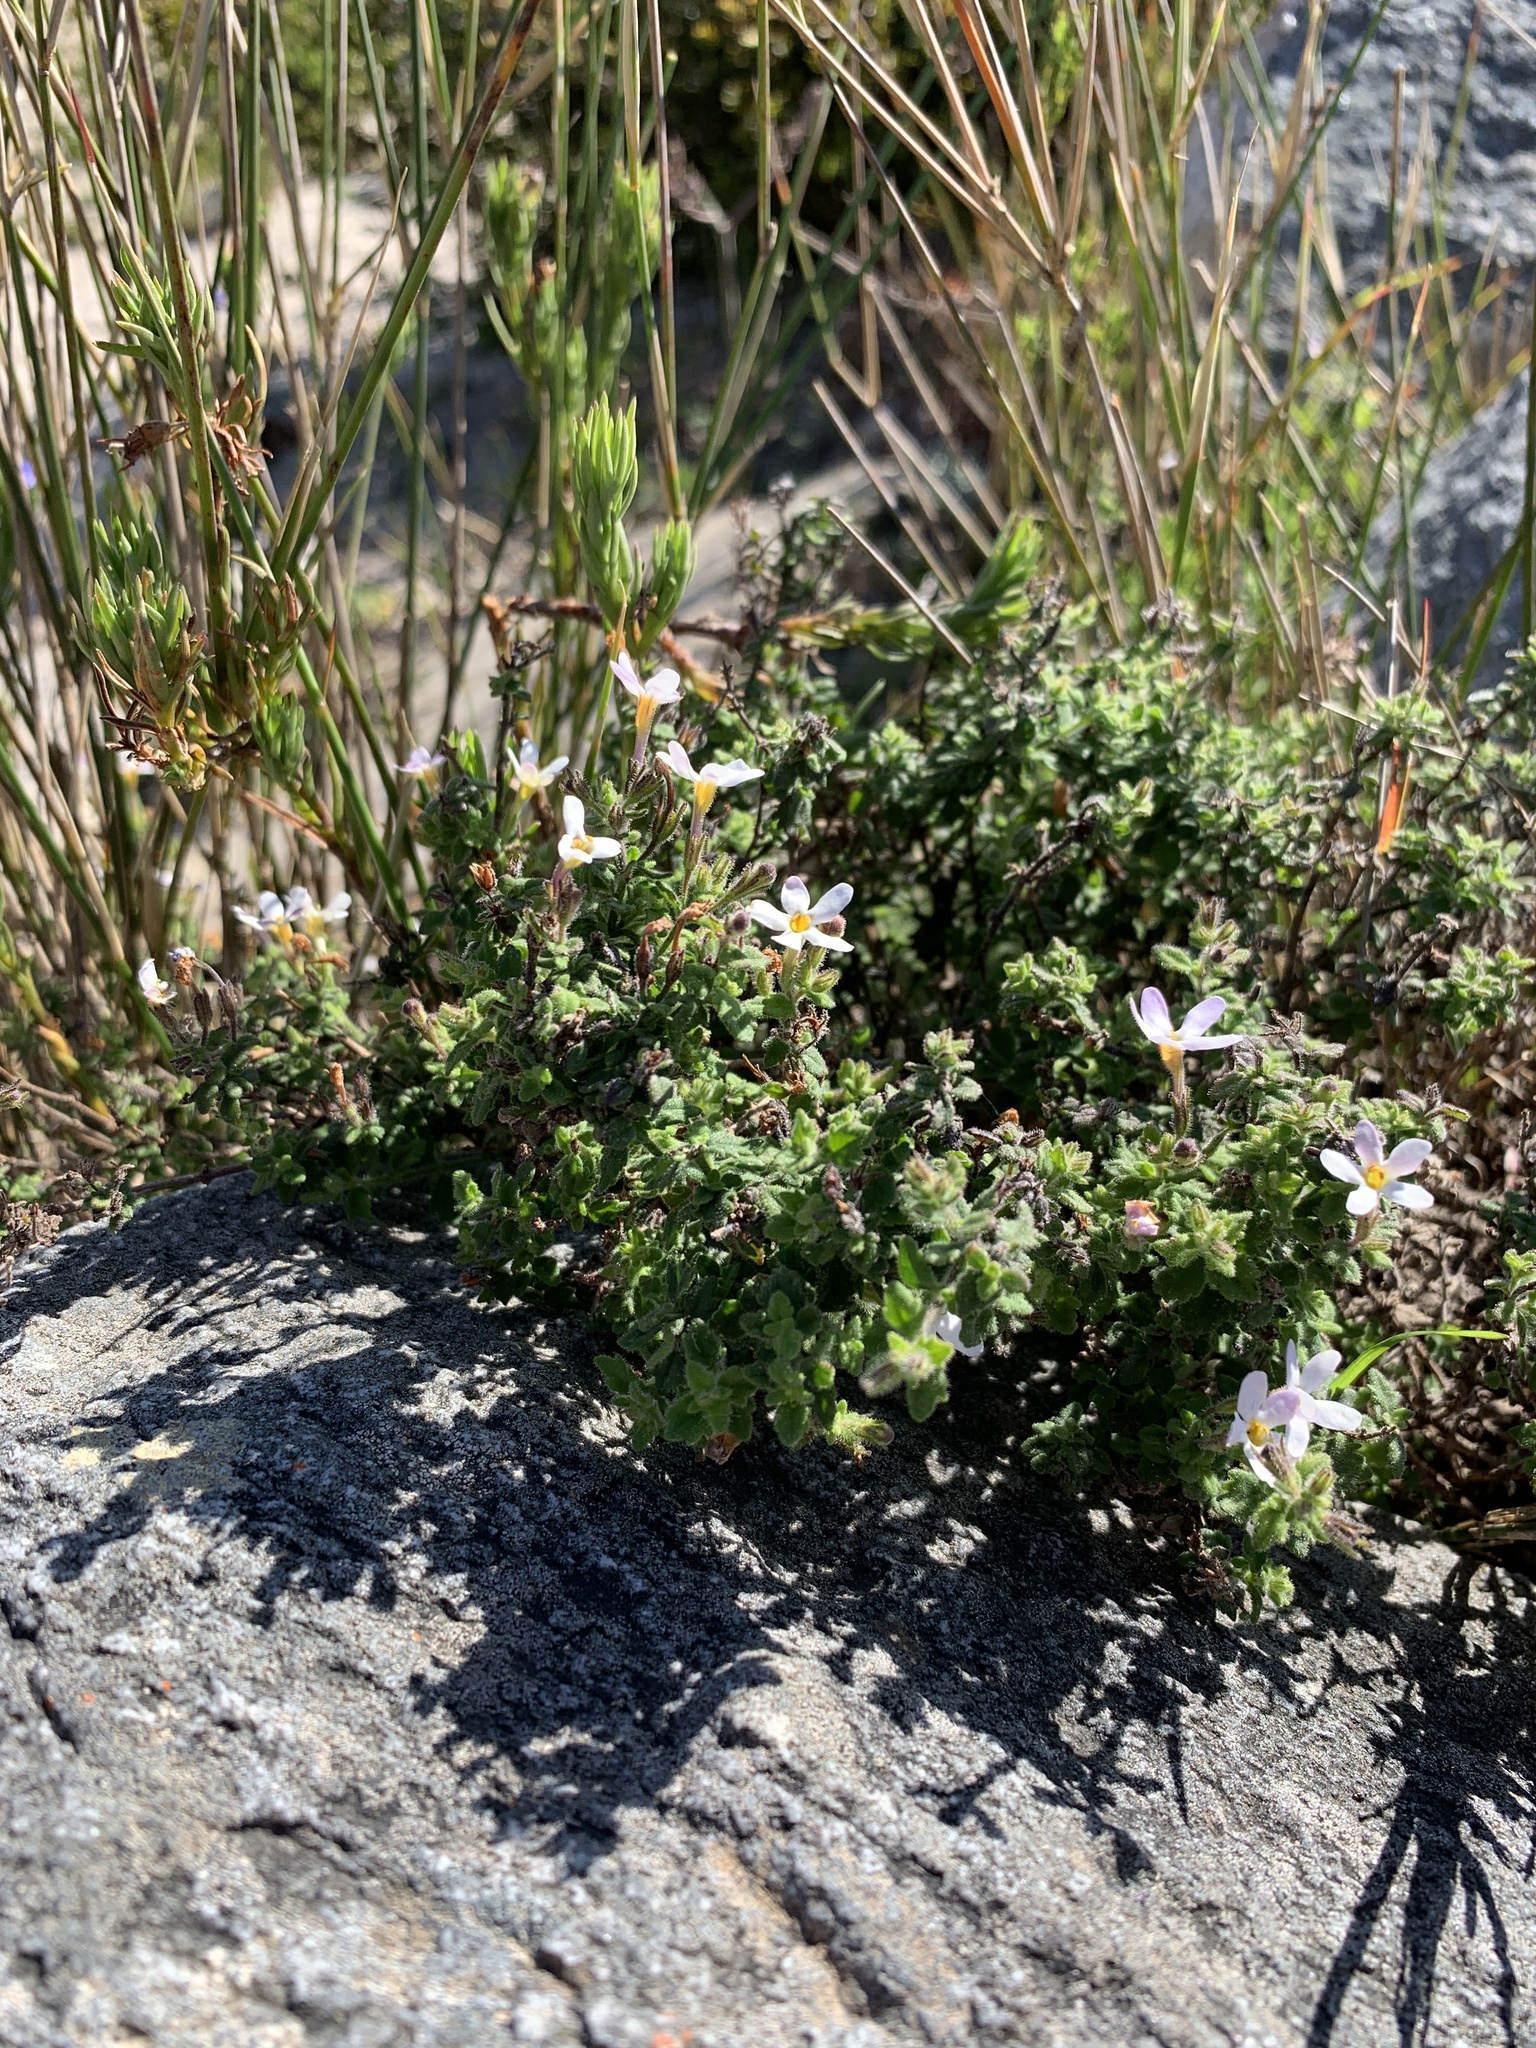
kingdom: Plantae
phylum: Tracheophyta
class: Magnoliopsida
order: Lamiales
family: Scrophulariaceae
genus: Chaenostoma
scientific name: Chaenostoma hispidum
